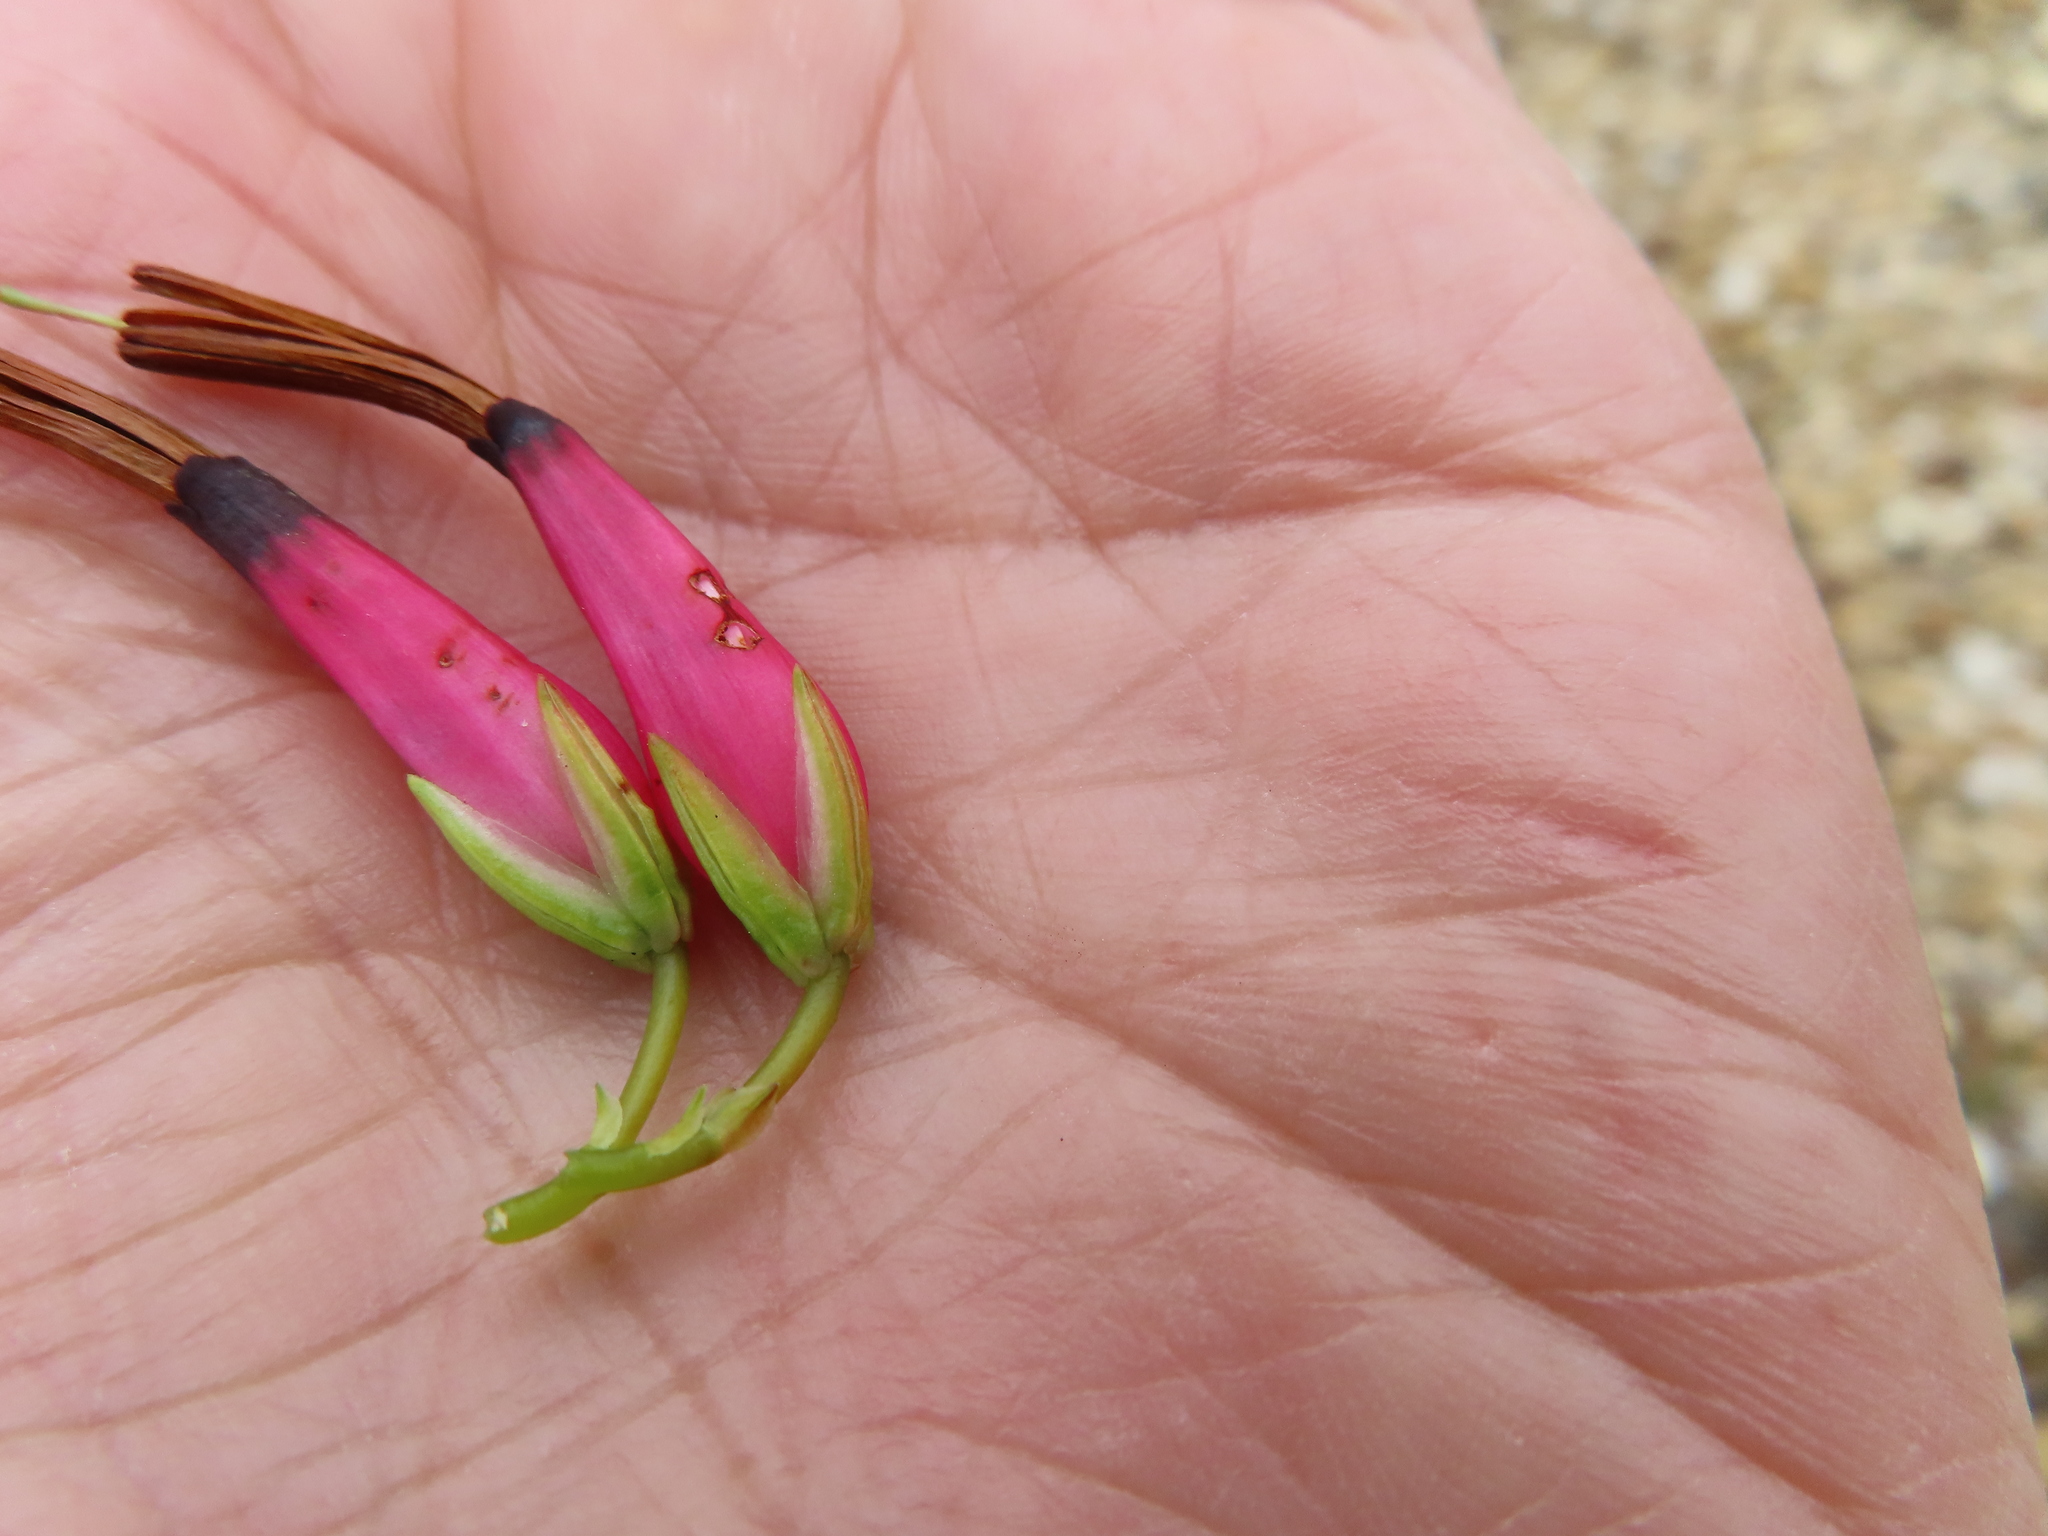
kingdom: Plantae
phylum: Tracheophyta
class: Magnoliopsida
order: Ericales
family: Ericaceae
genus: Erica
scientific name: Erica plukenetii
